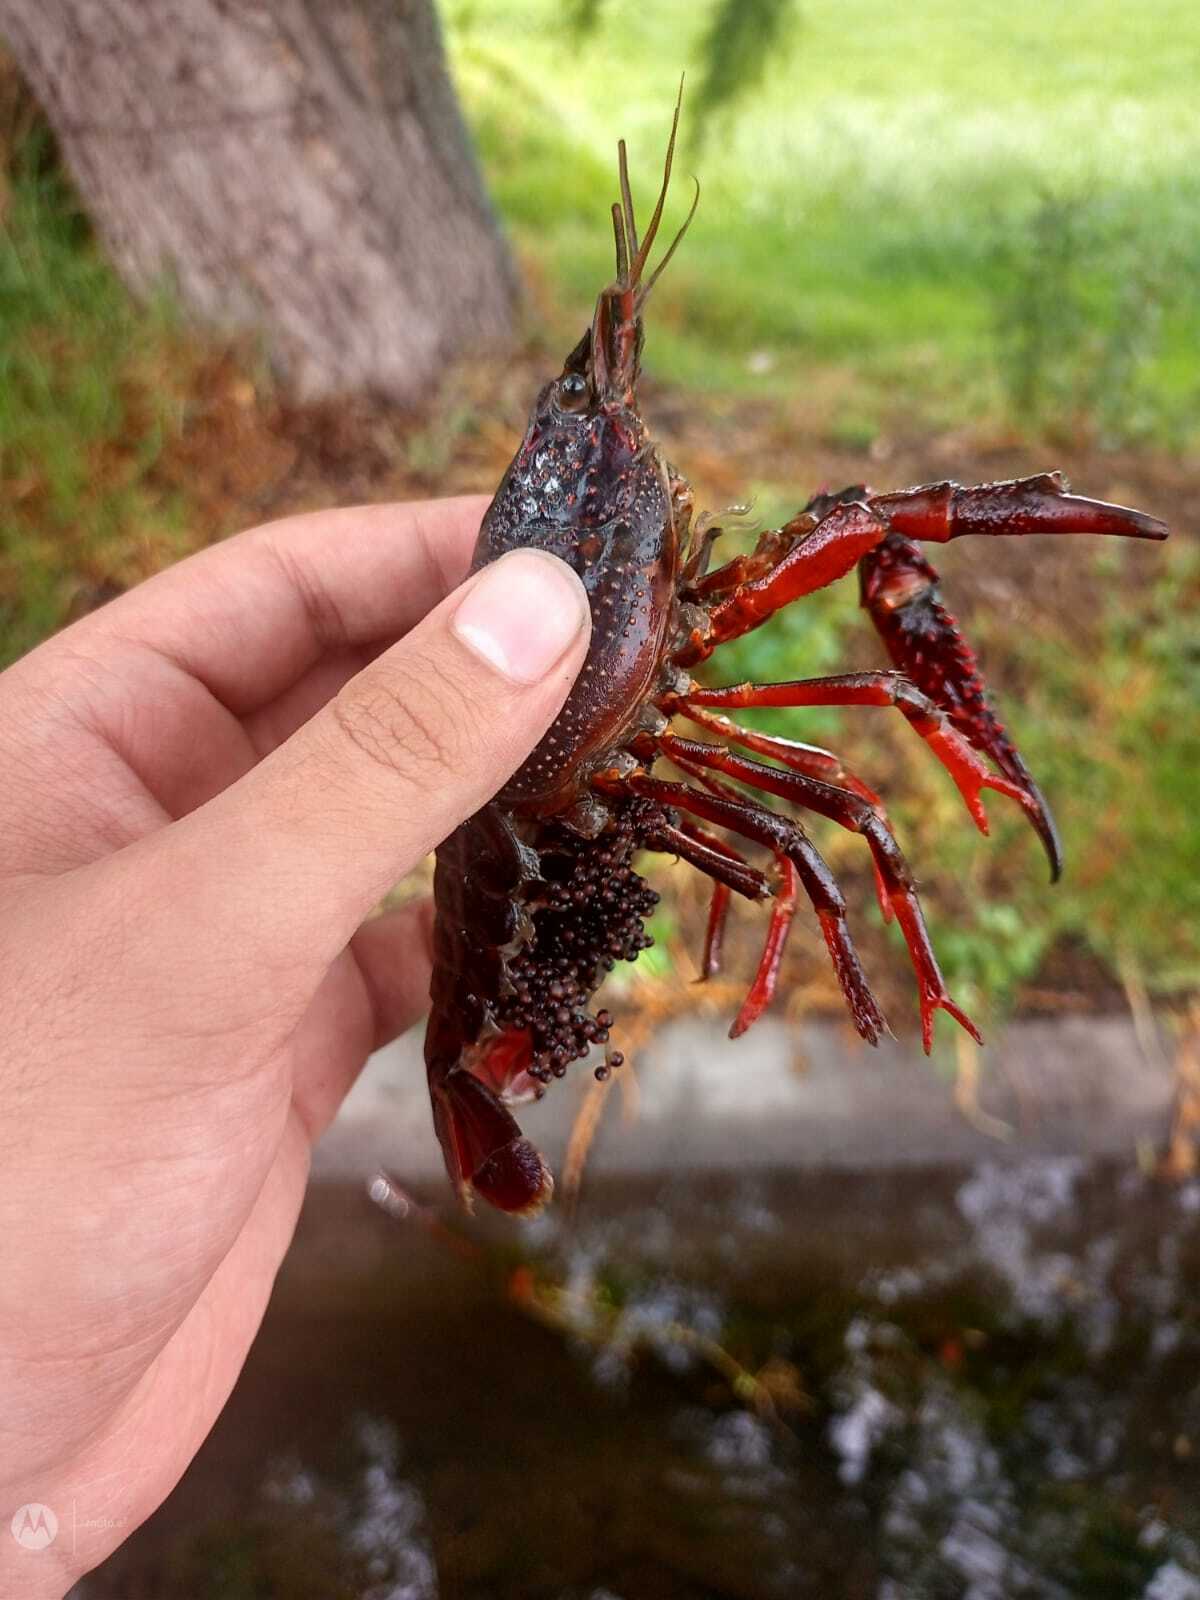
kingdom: Animalia
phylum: Arthropoda
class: Malacostraca
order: Decapoda
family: Cambaridae
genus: Procambarus
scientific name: Procambarus clarkii
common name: Red swamp crayfish
